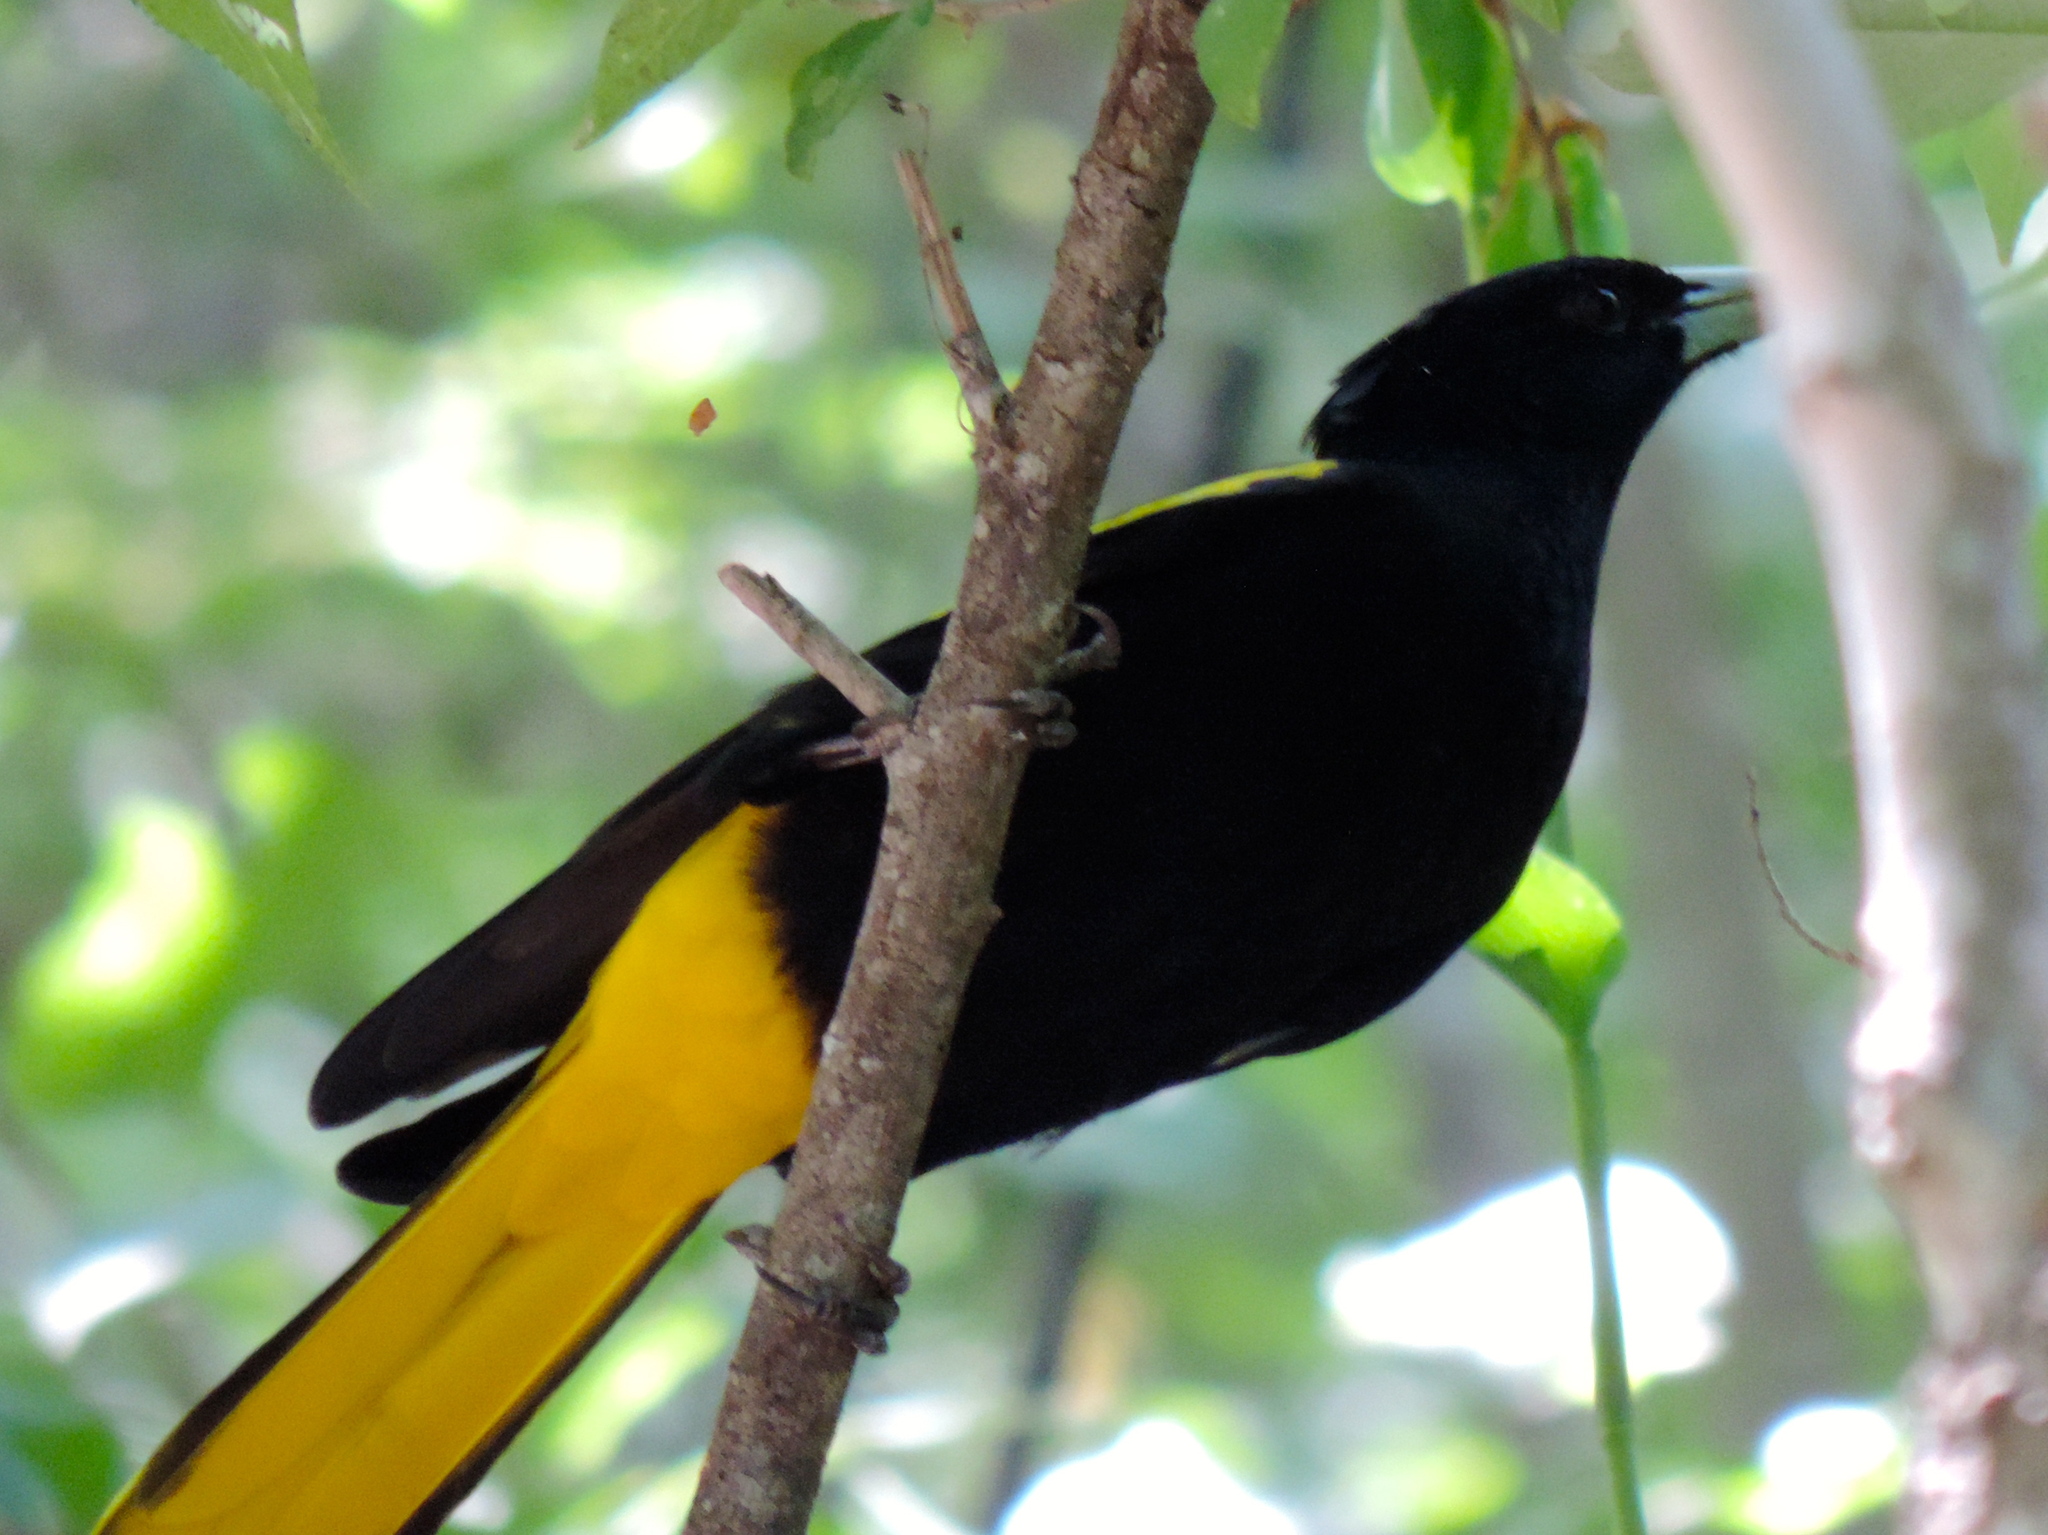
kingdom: Animalia
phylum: Chordata
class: Aves
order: Passeriformes
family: Icteridae
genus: Cacicus
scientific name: Cacicus melanicterus
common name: Yellow-winged cacique
